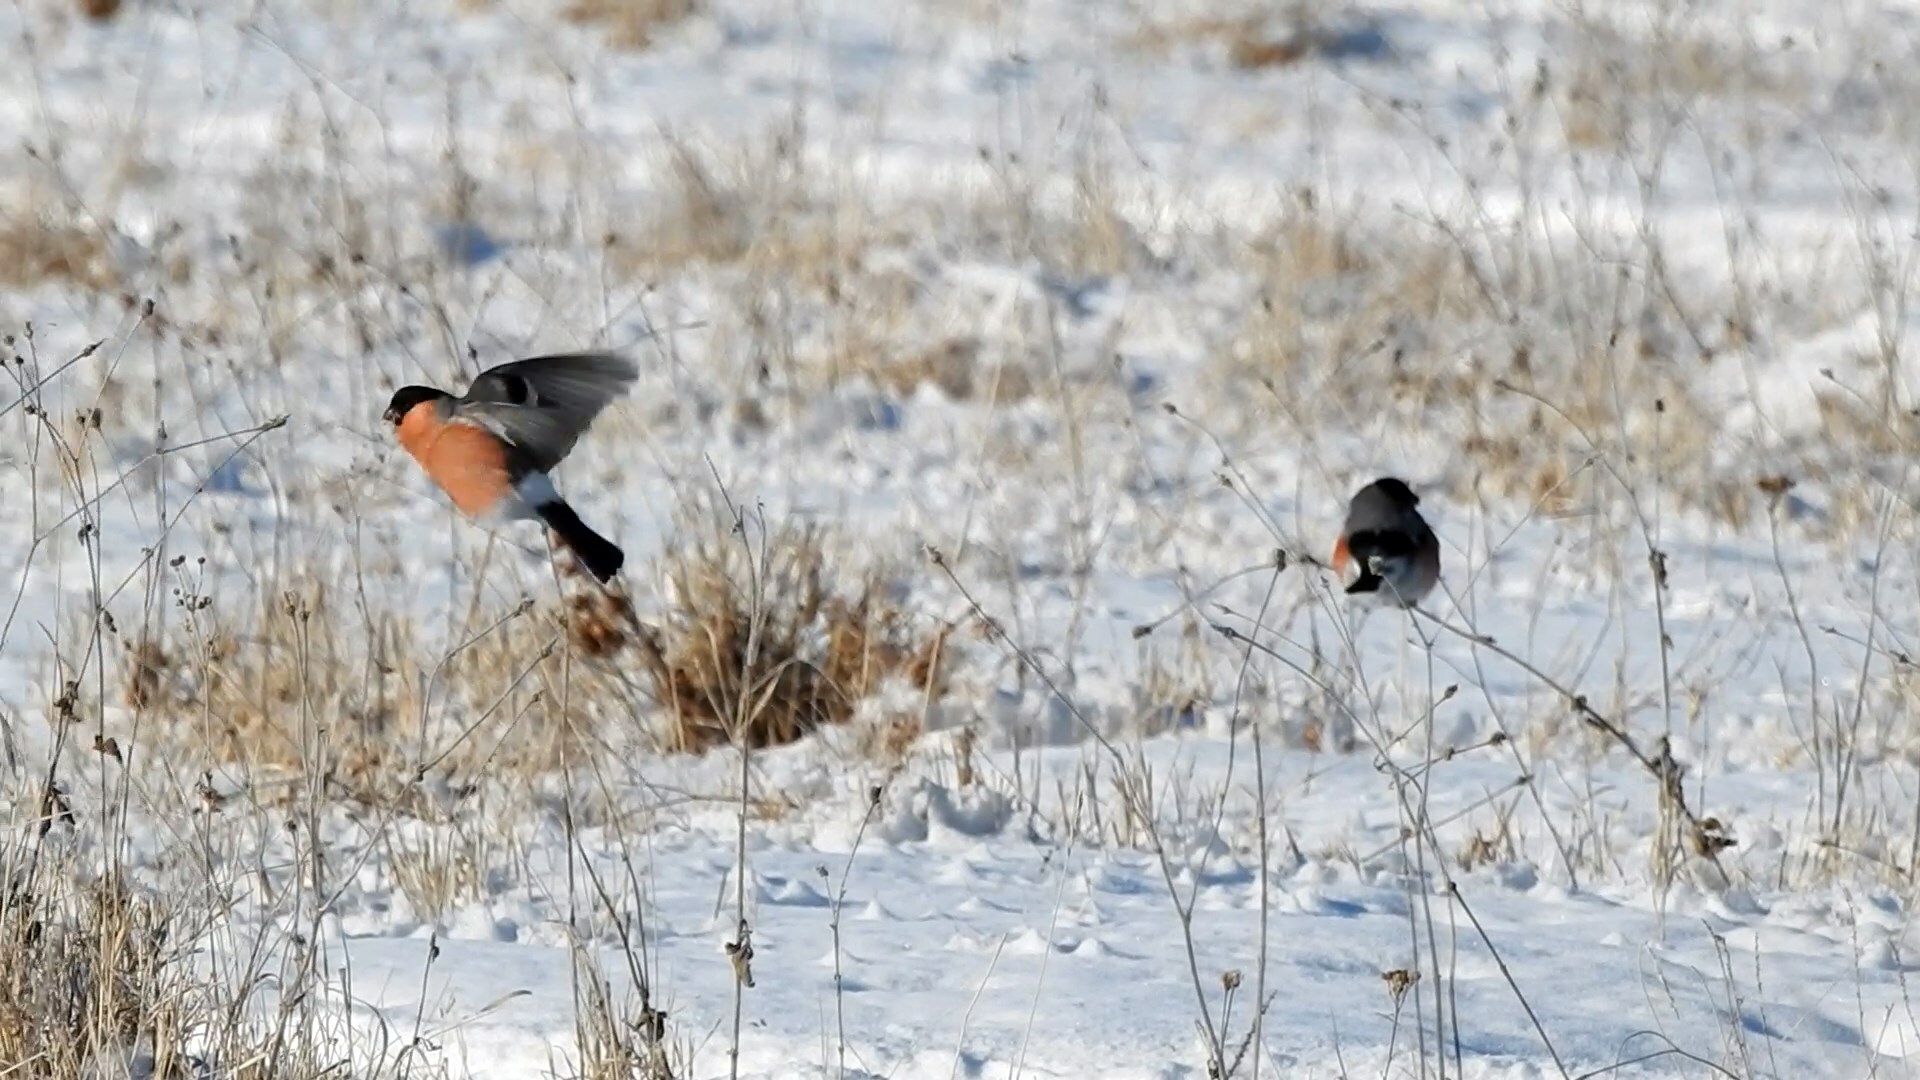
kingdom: Animalia
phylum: Chordata
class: Aves
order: Passeriformes
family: Fringillidae
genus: Pyrrhula
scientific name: Pyrrhula pyrrhula
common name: Eurasian bullfinch
